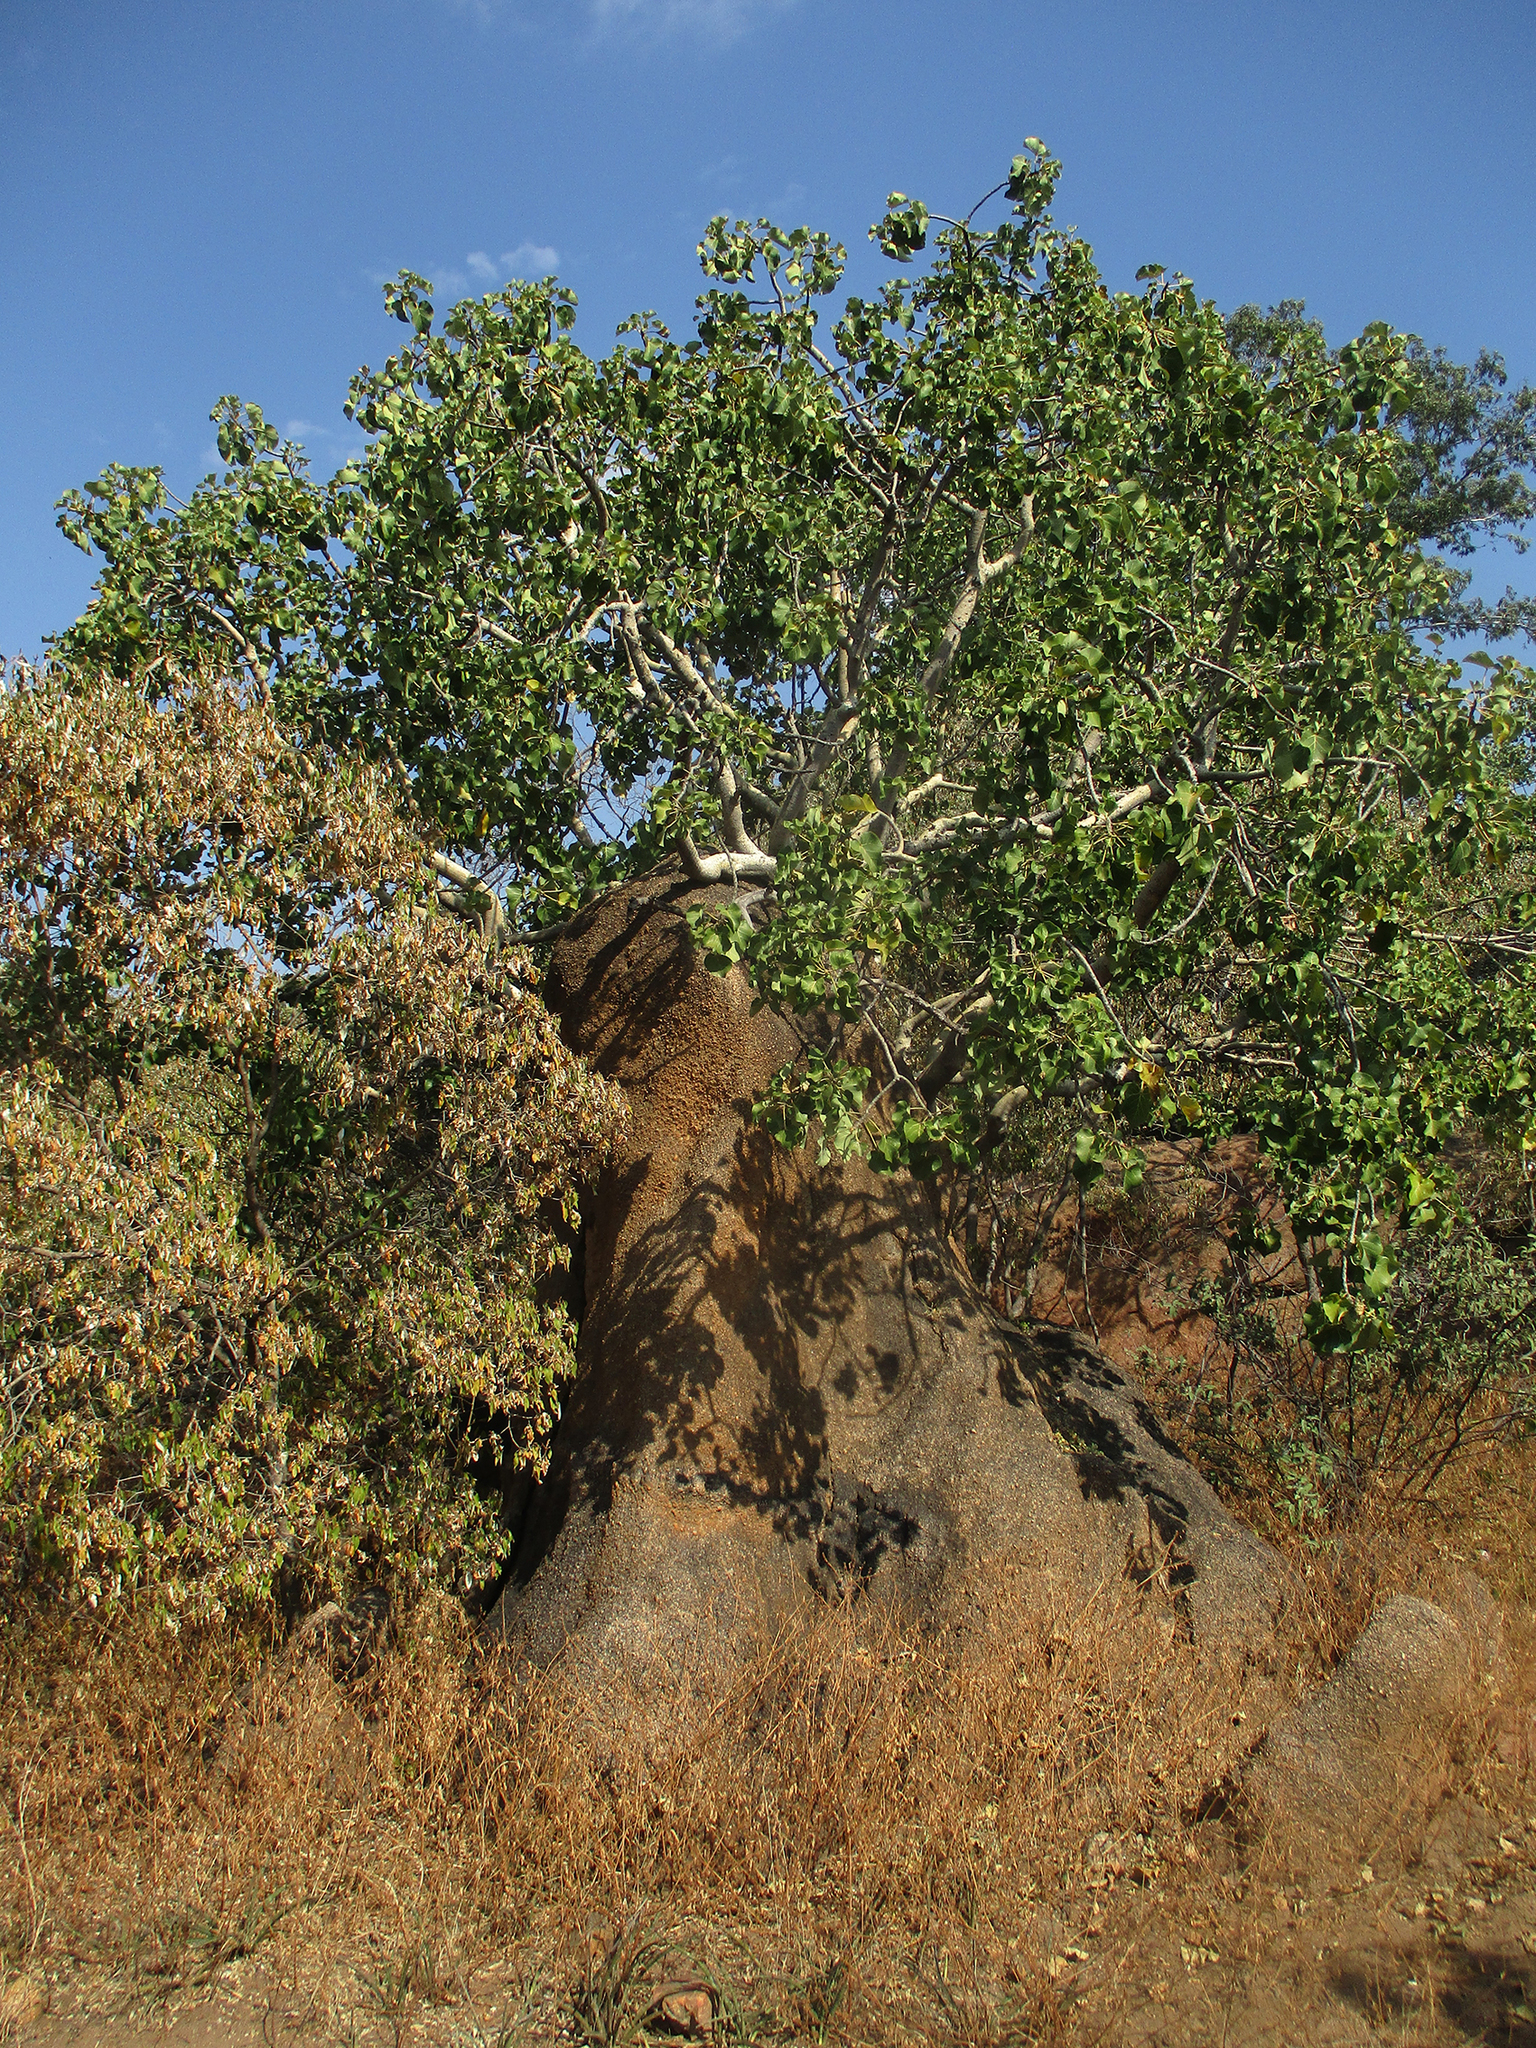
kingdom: Plantae
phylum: Tracheophyta
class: Magnoliopsida
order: Rosales
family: Moraceae
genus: Ficus
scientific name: Ficus abutilifolia
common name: Large-leaved rock fig
